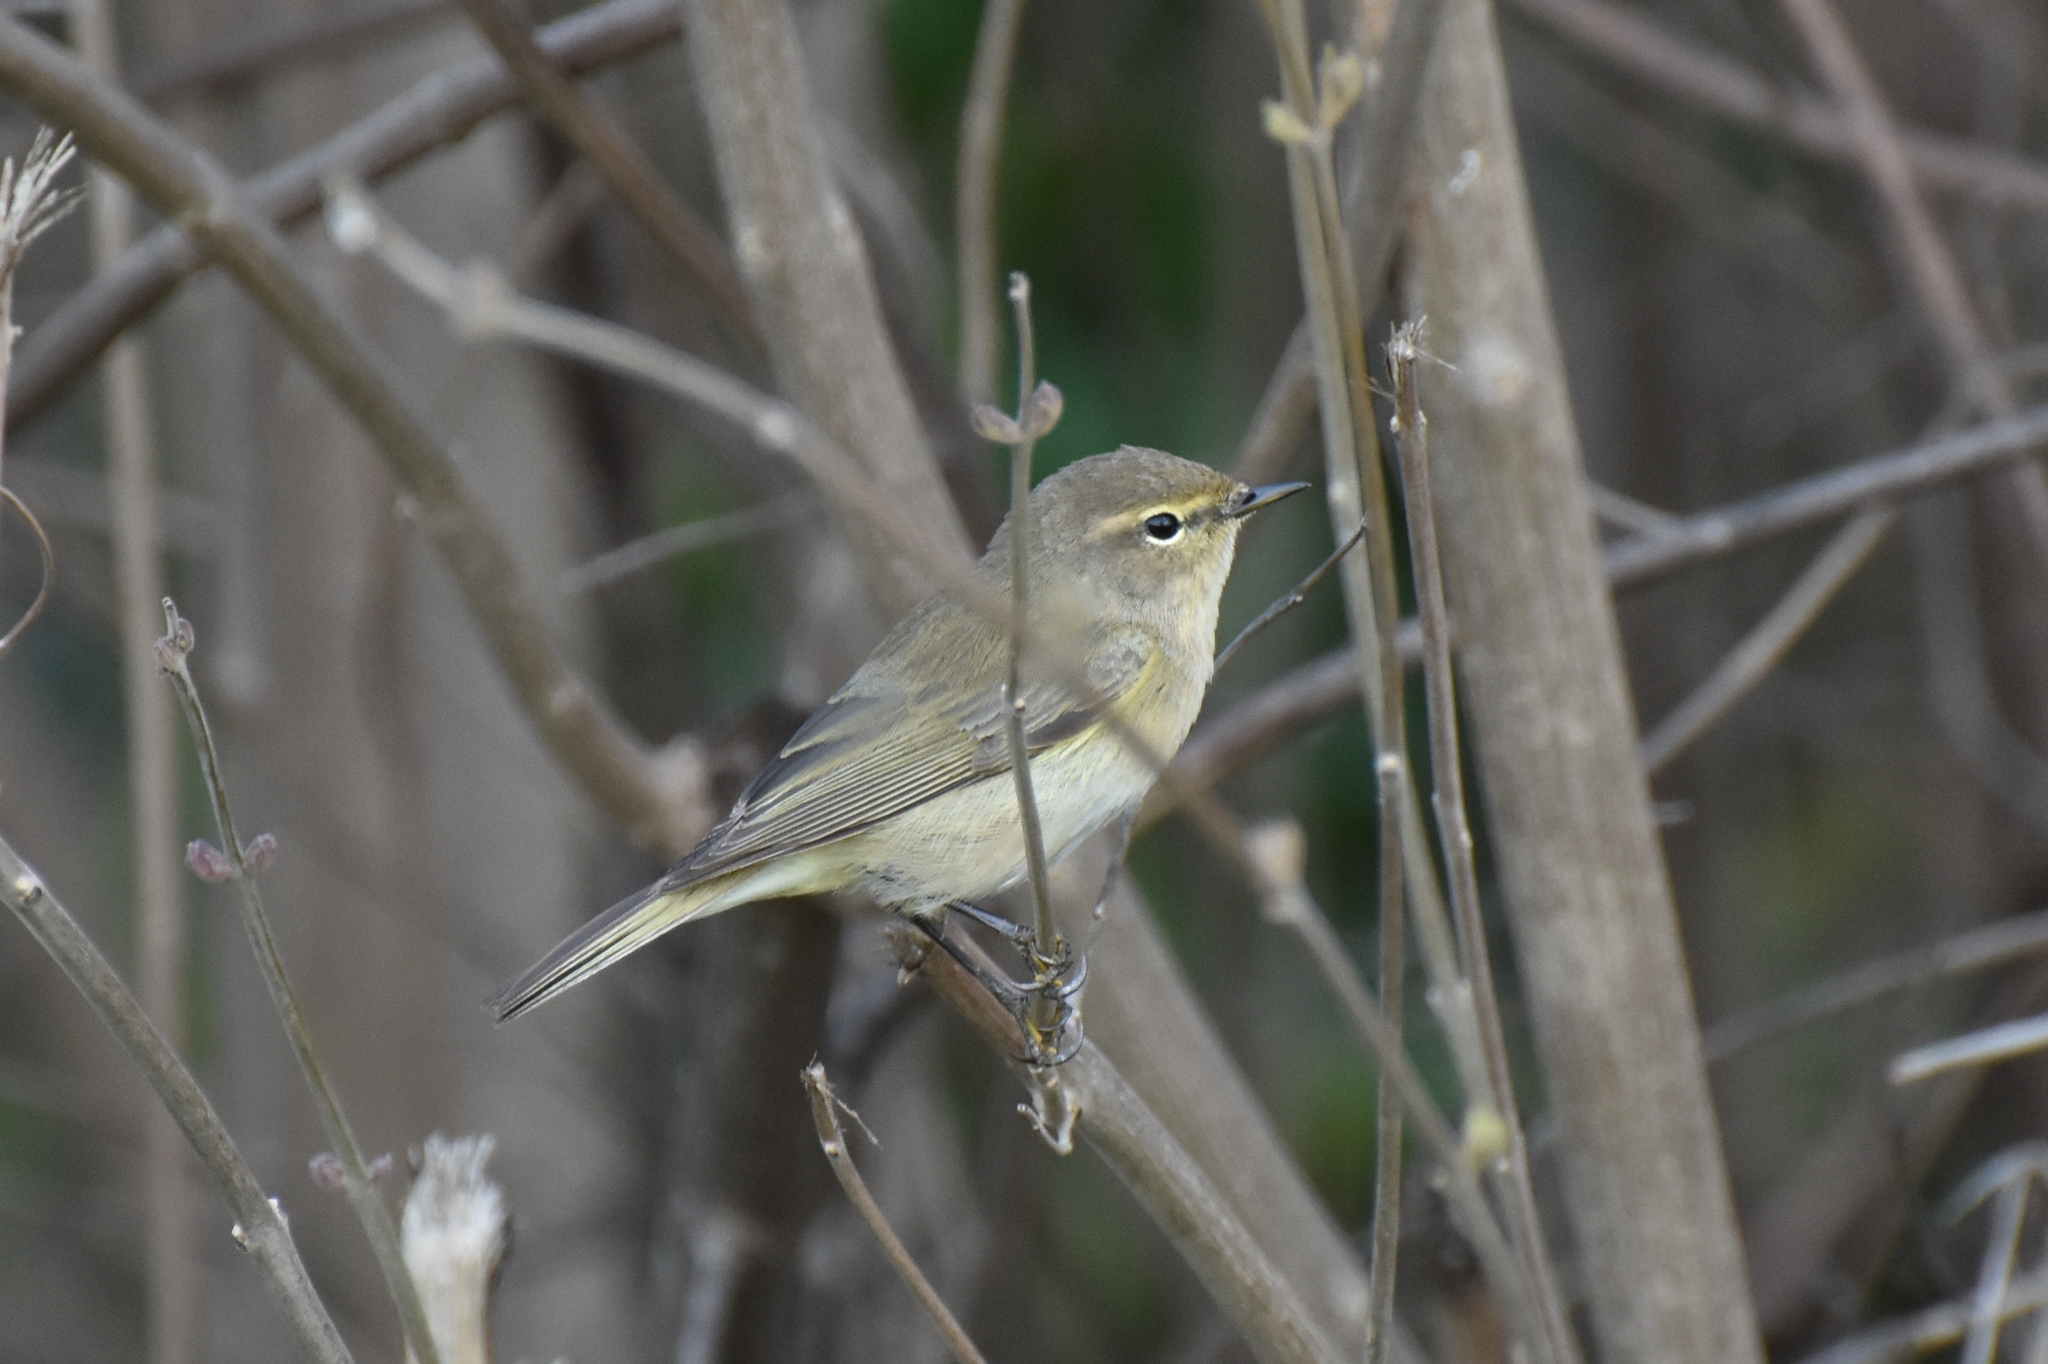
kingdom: Animalia
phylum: Chordata
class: Aves
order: Passeriformes
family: Phylloscopidae
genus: Phylloscopus
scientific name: Phylloscopus collybita
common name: Common chiffchaff
